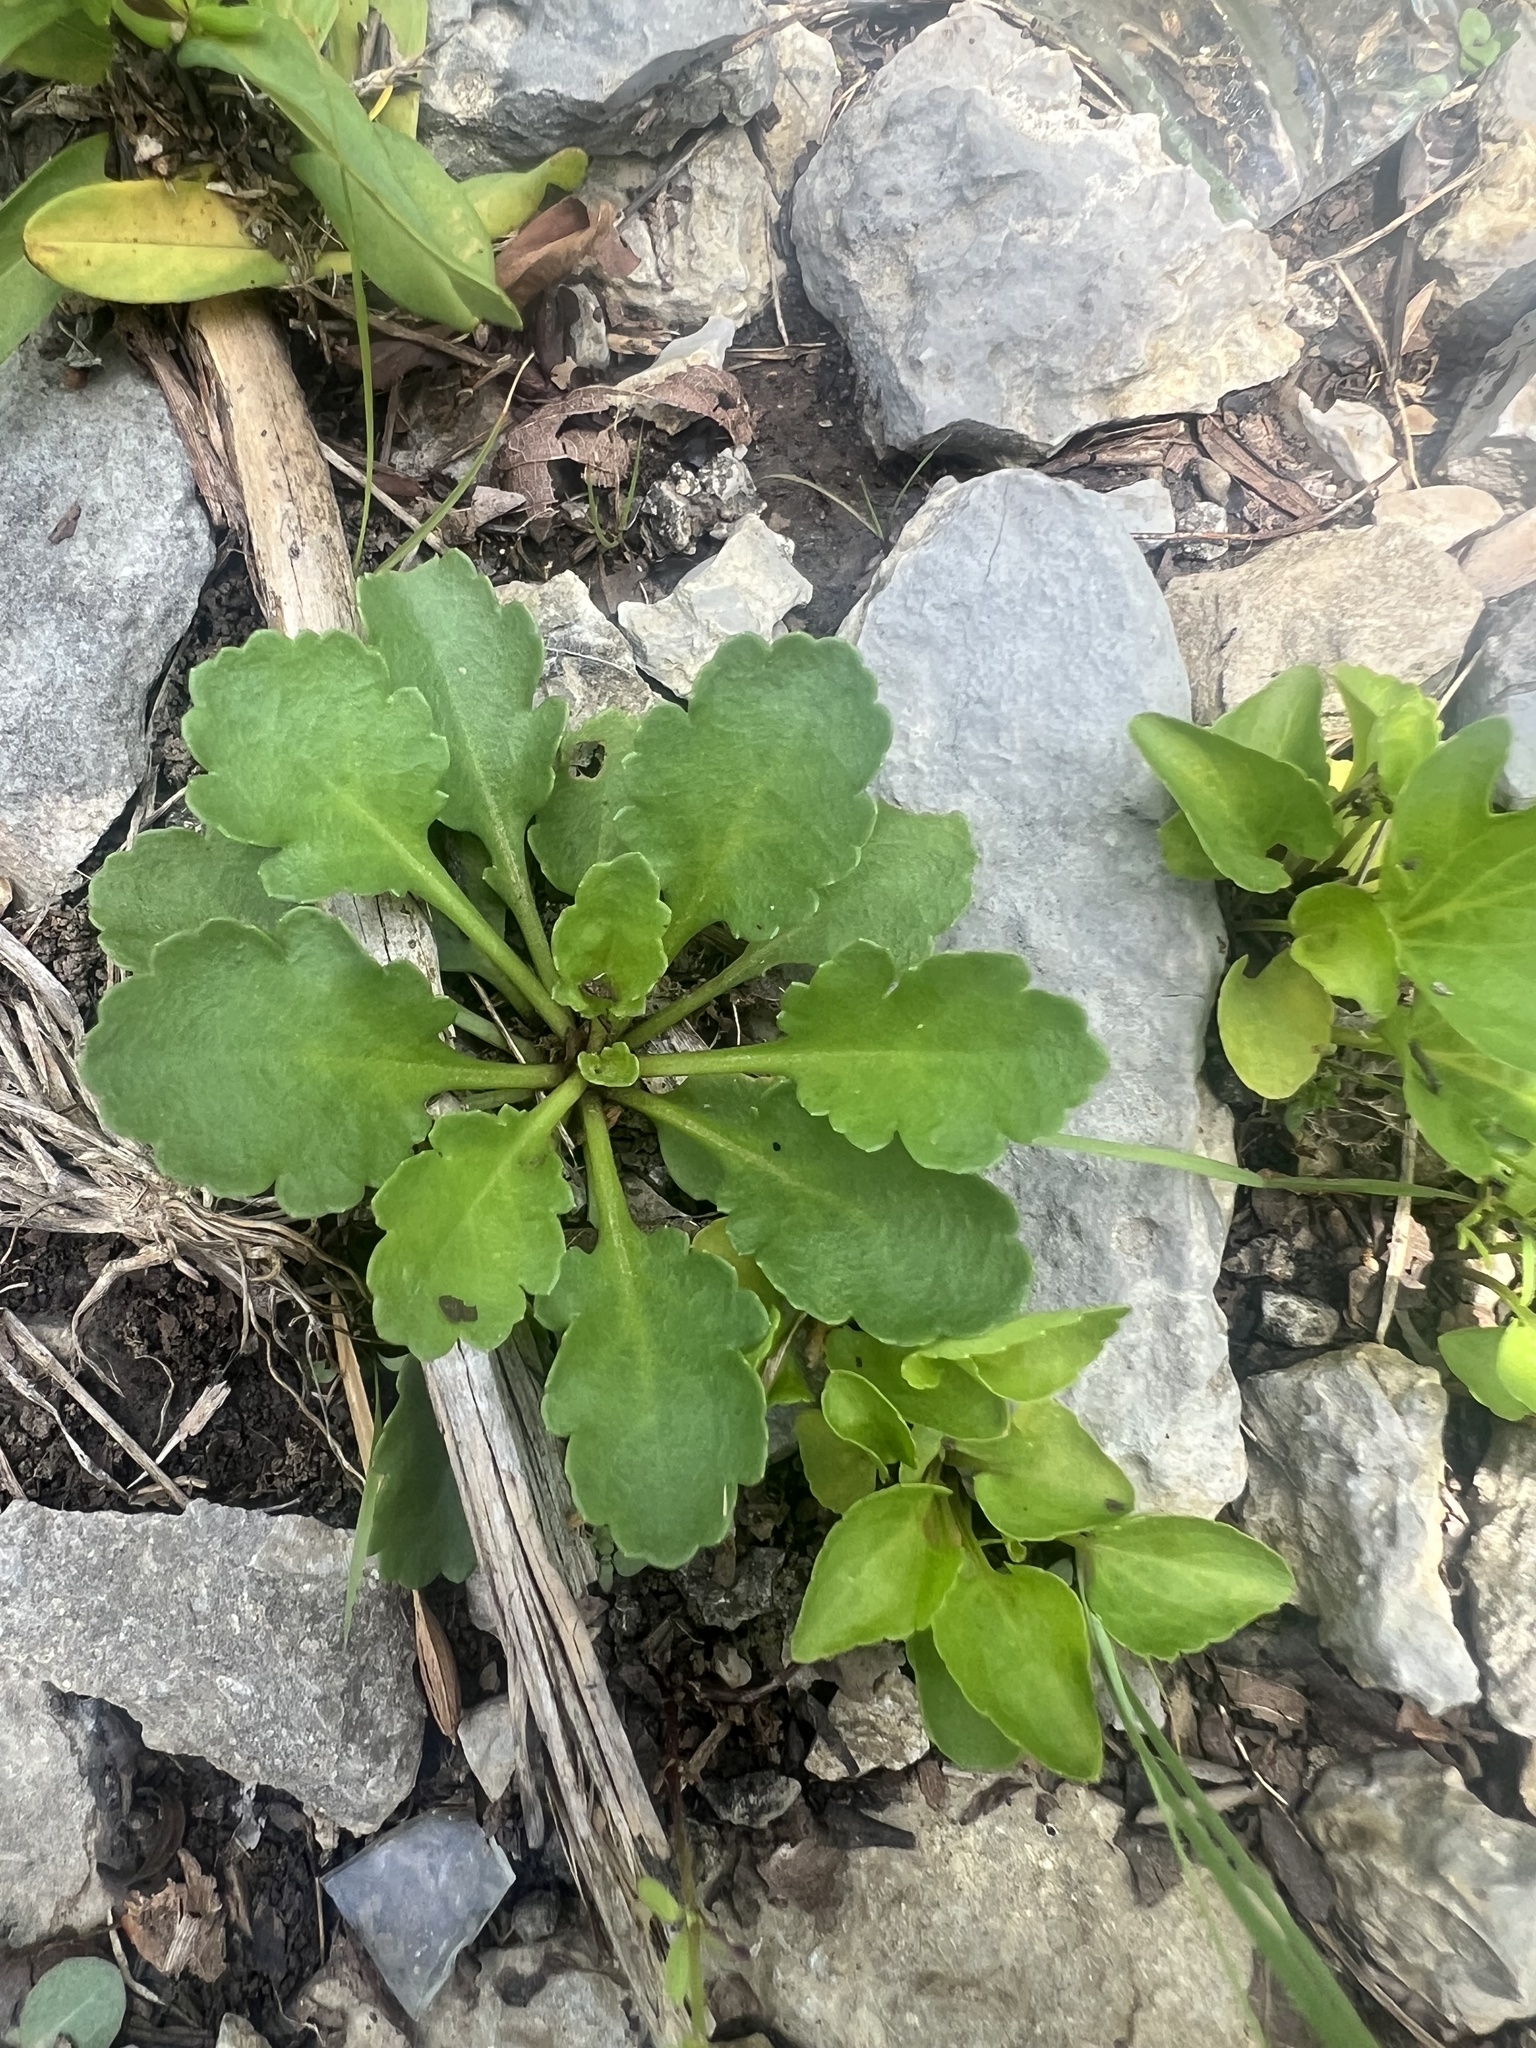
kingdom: Plantae
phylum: Tracheophyta
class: Magnoliopsida
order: Asterales
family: Asteraceae
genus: Leucanthemum
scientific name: Leucanthemum vulgare
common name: Oxeye daisy
